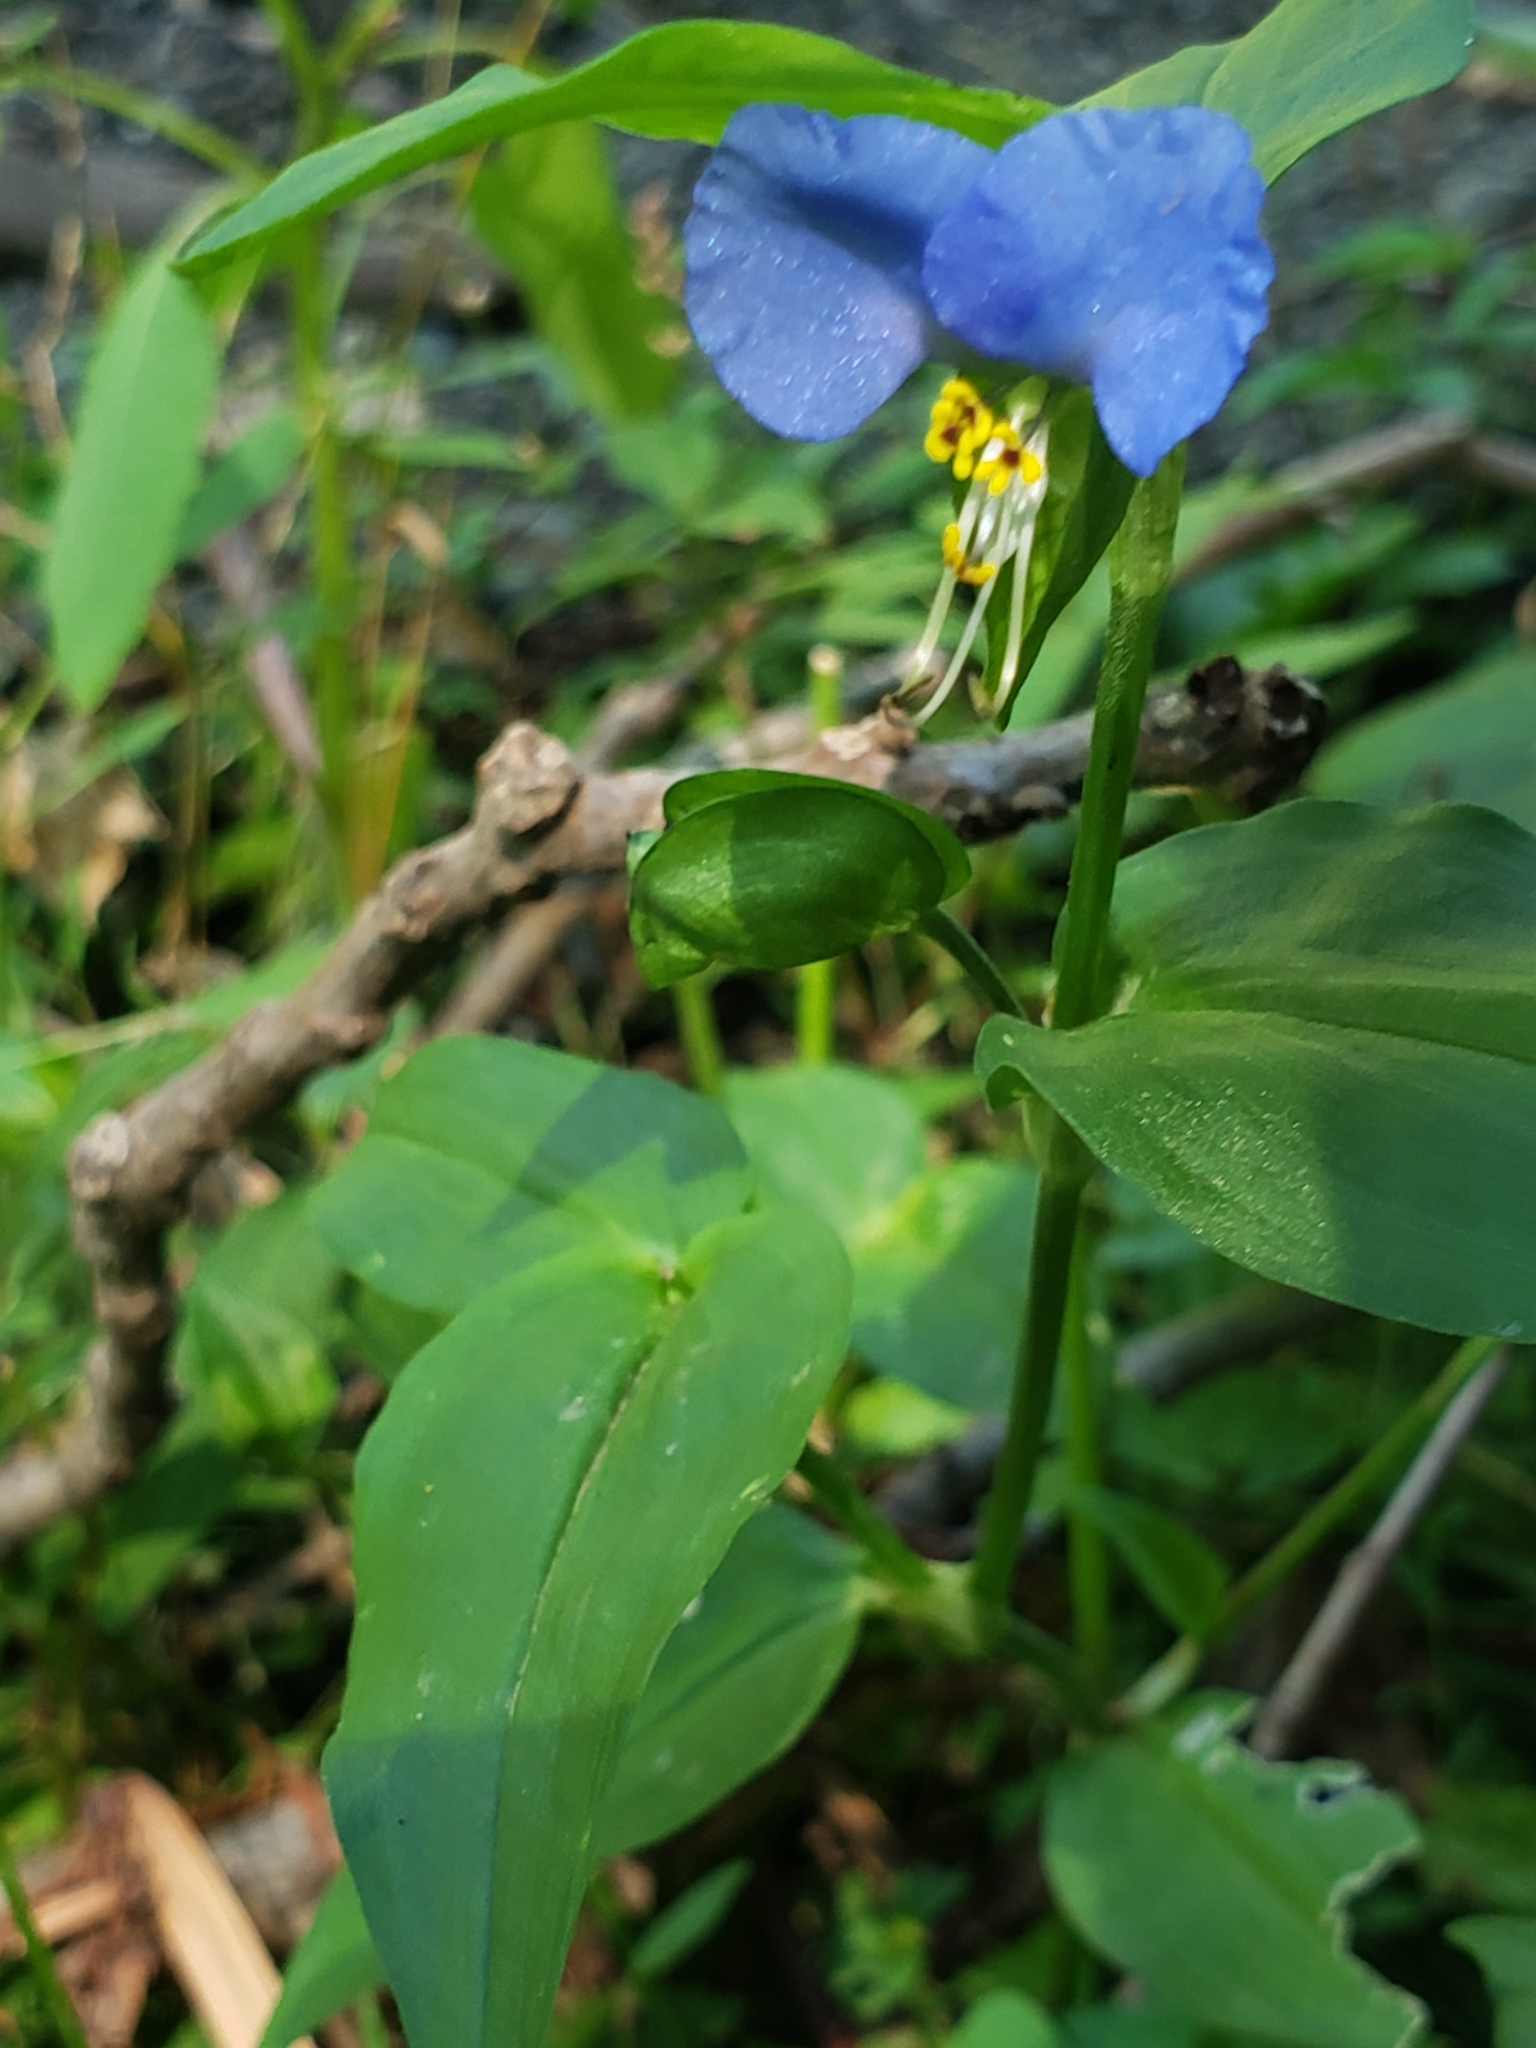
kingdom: Plantae
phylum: Tracheophyta
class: Liliopsida
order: Commelinales
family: Commelinaceae
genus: Commelina
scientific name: Commelina communis
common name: Asiatic dayflower
